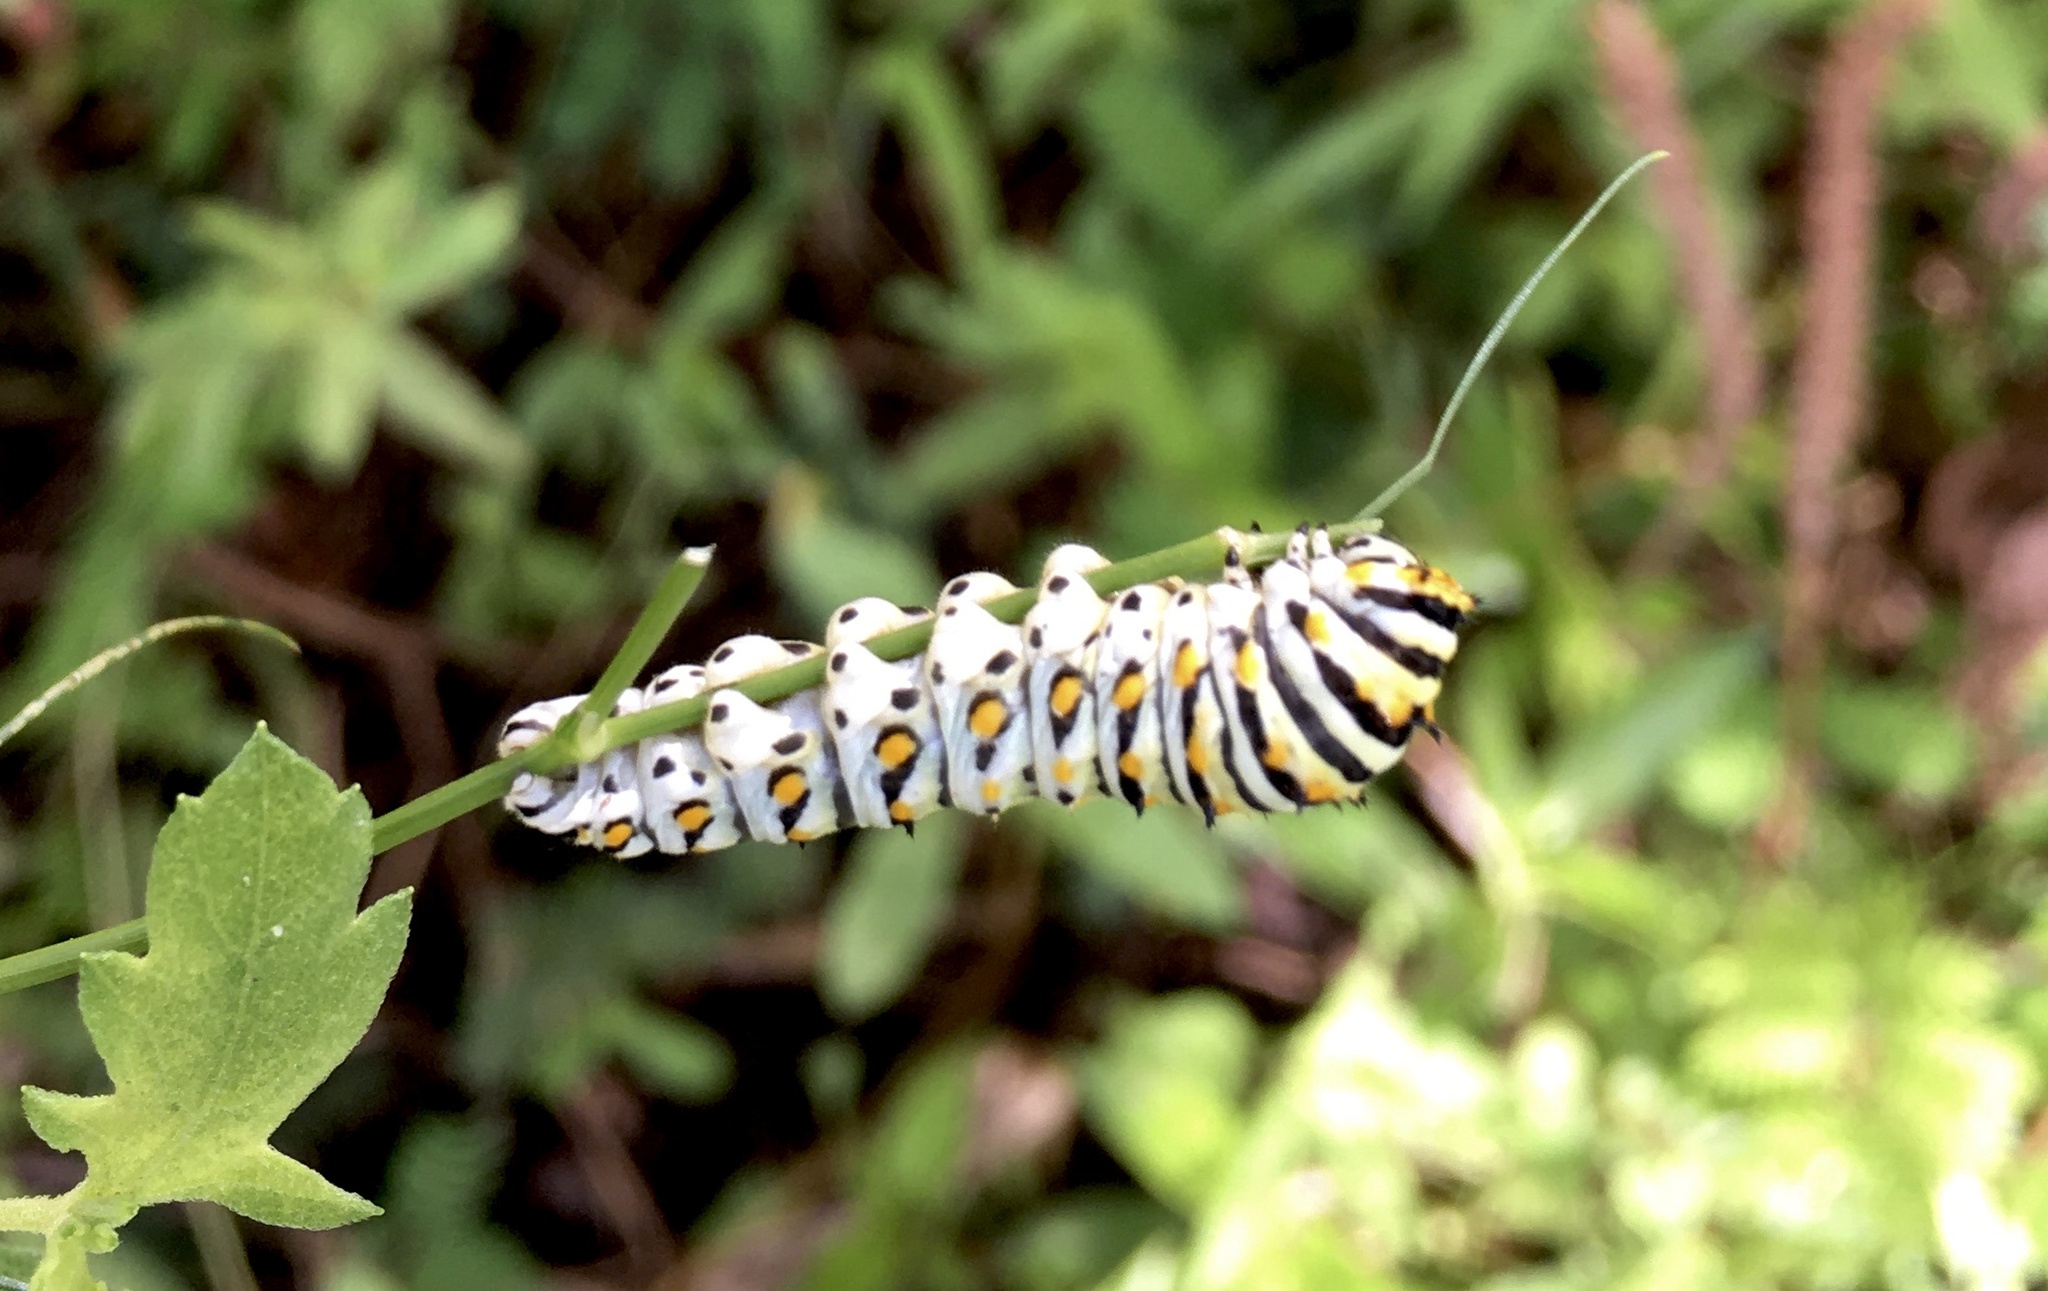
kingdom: Animalia
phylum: Arthropoda
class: Insecta
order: Lepidoptera
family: Papilionidae
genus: Papilio
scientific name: Papilio polyxenes
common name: Black swallowtail
